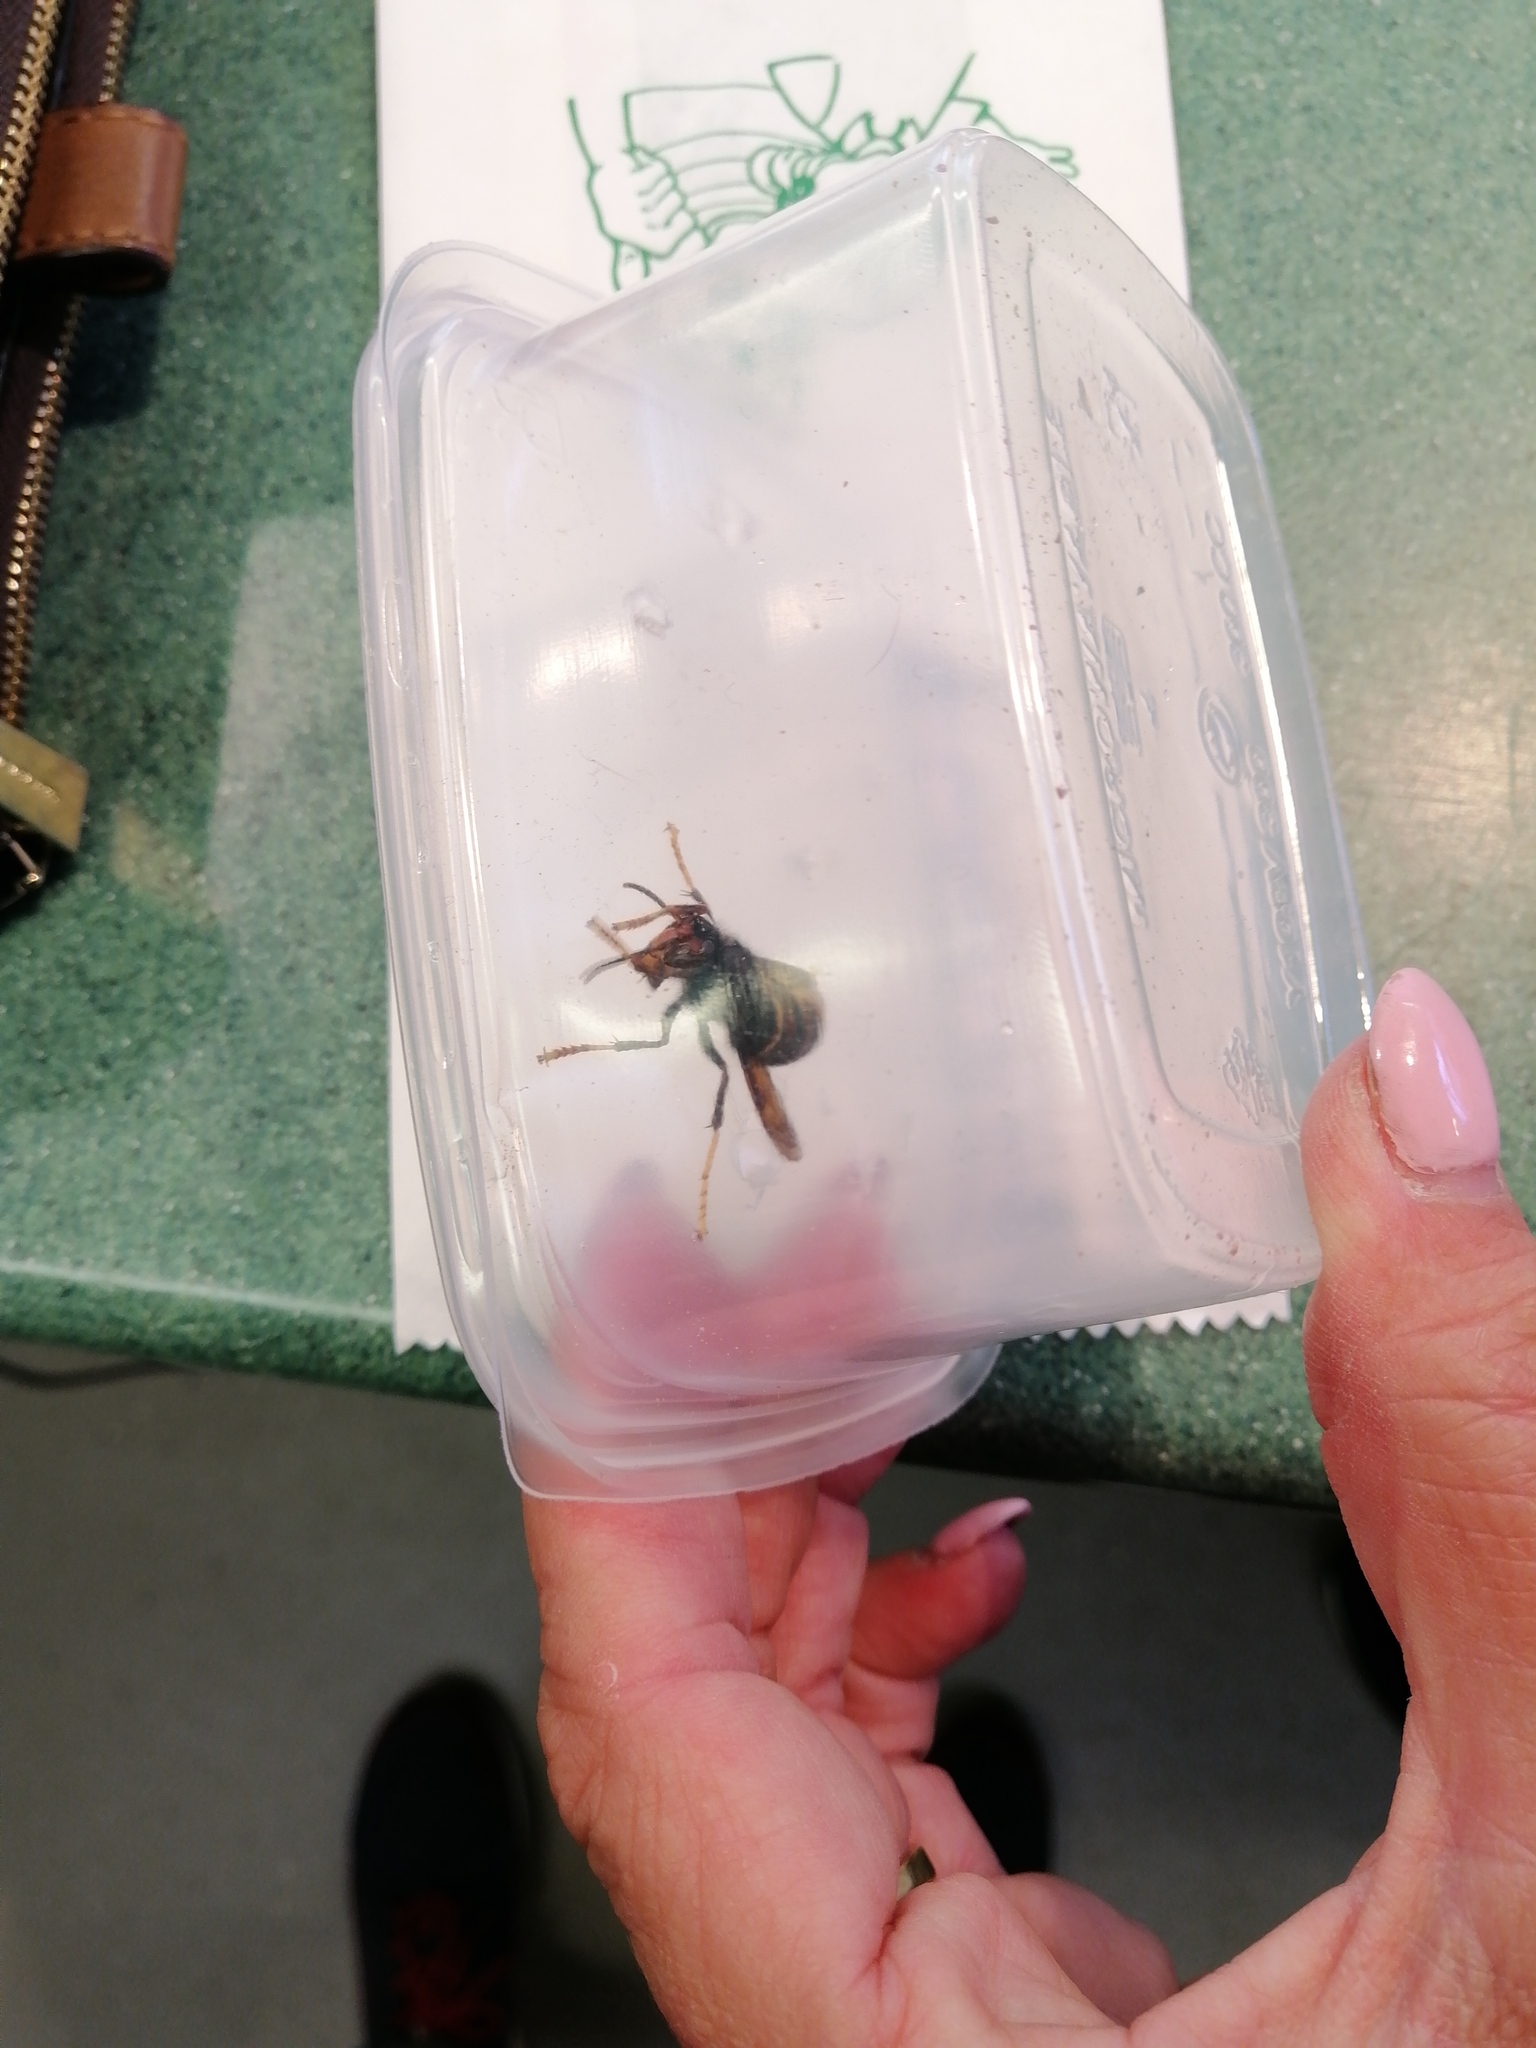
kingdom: Animalia
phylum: Arthropoda
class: Insecta
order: Hymenoptera
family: Vespidae
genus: Vespa
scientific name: Vespa velutina
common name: Asian hornet
